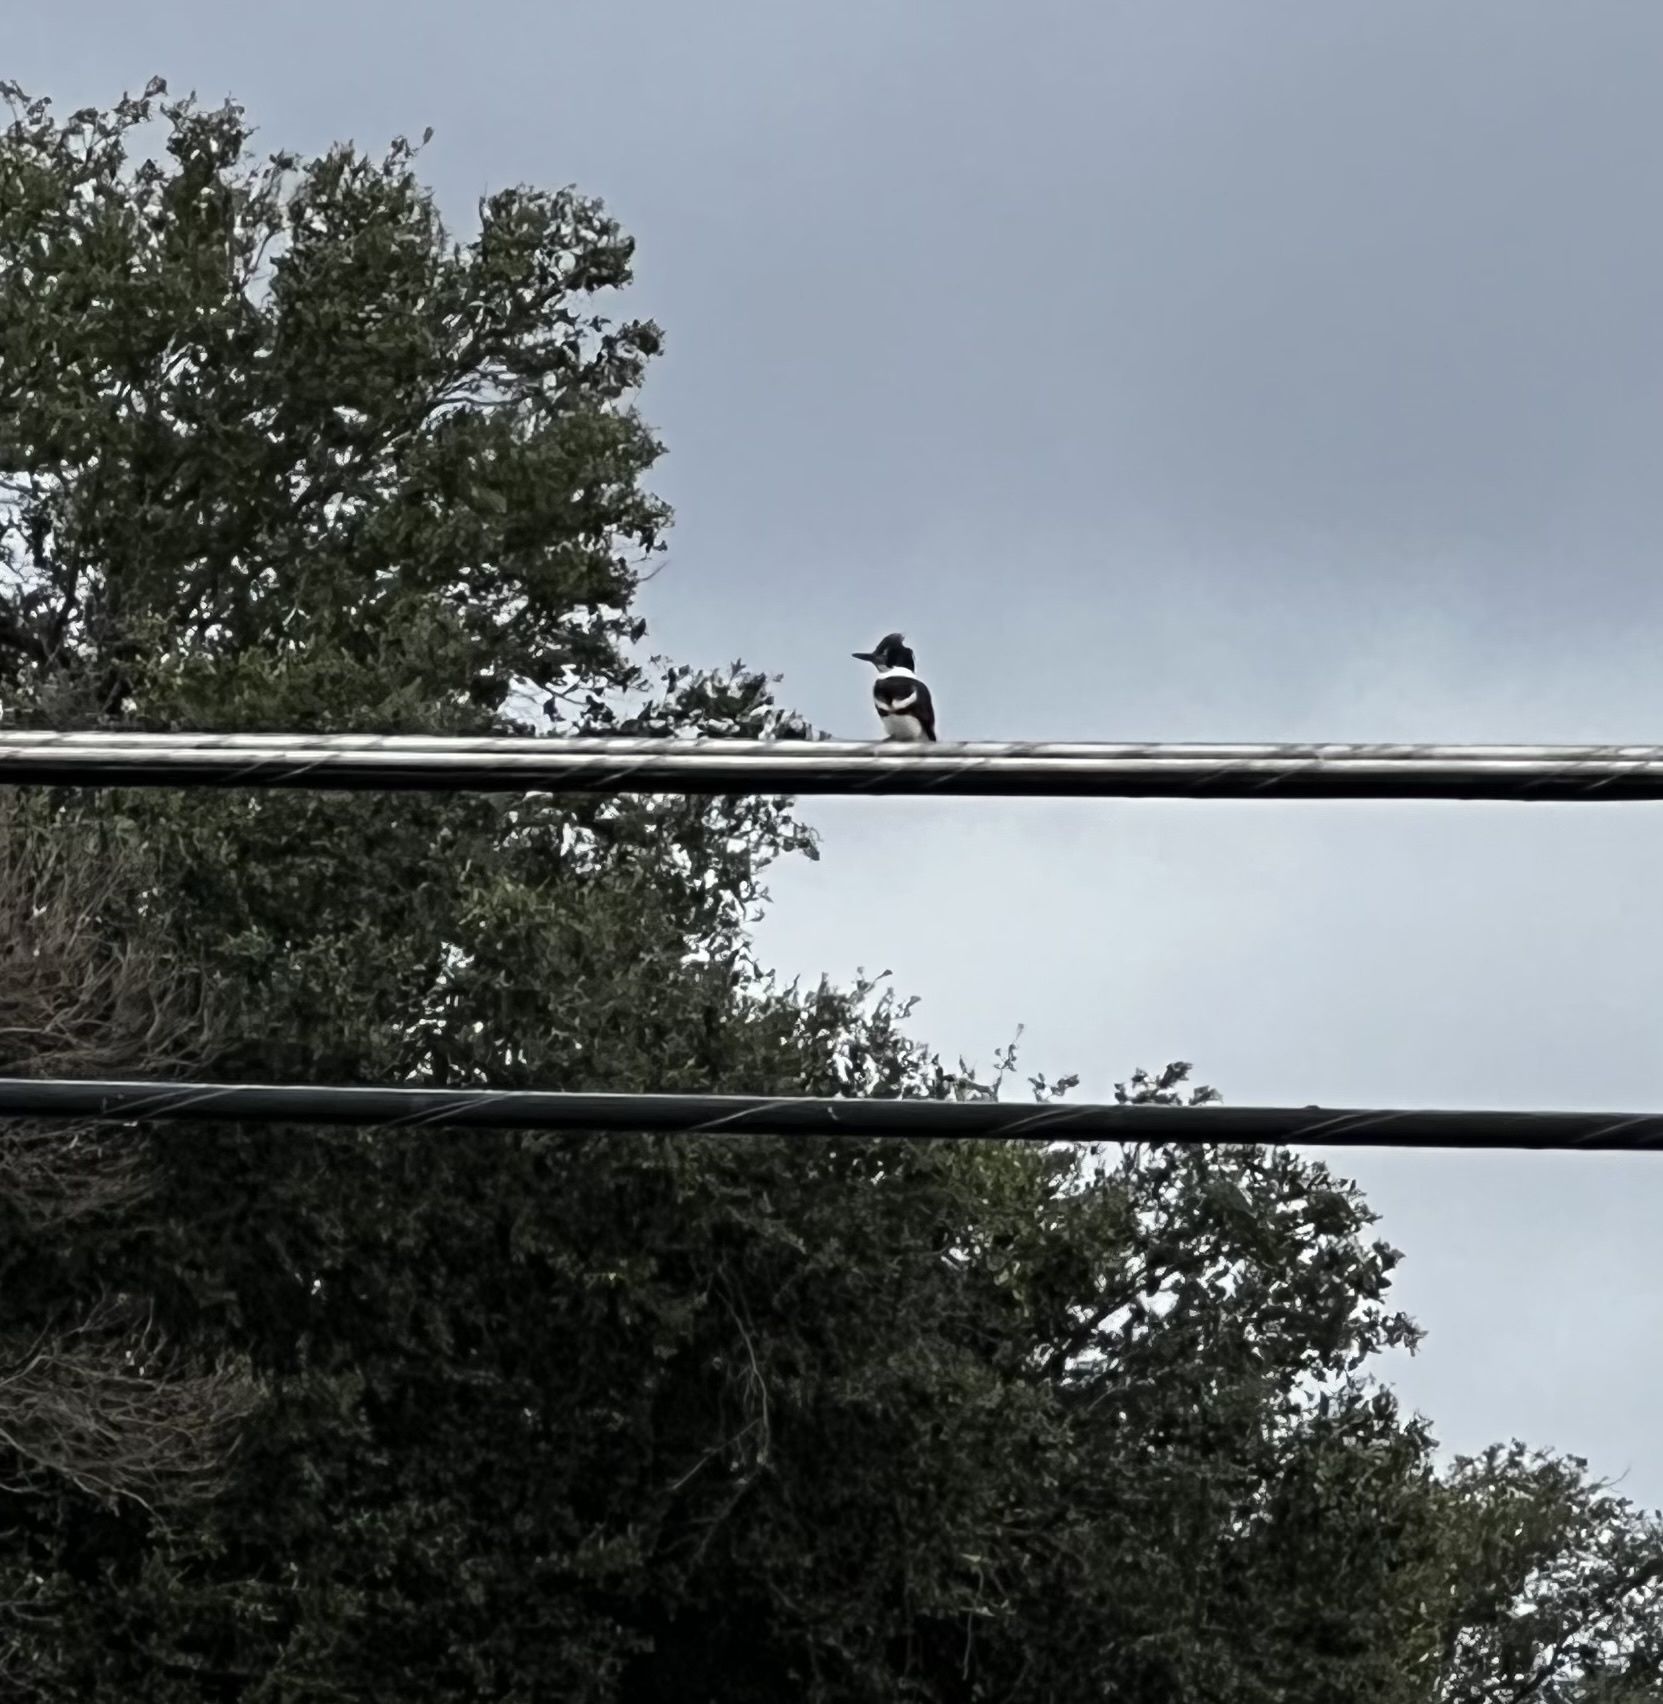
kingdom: Animalia
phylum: Chordata
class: Aves
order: Coraciiformes
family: Alcedinidae
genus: Megaceryle
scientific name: Megaceryle alcyon
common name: Belted kingfisher
